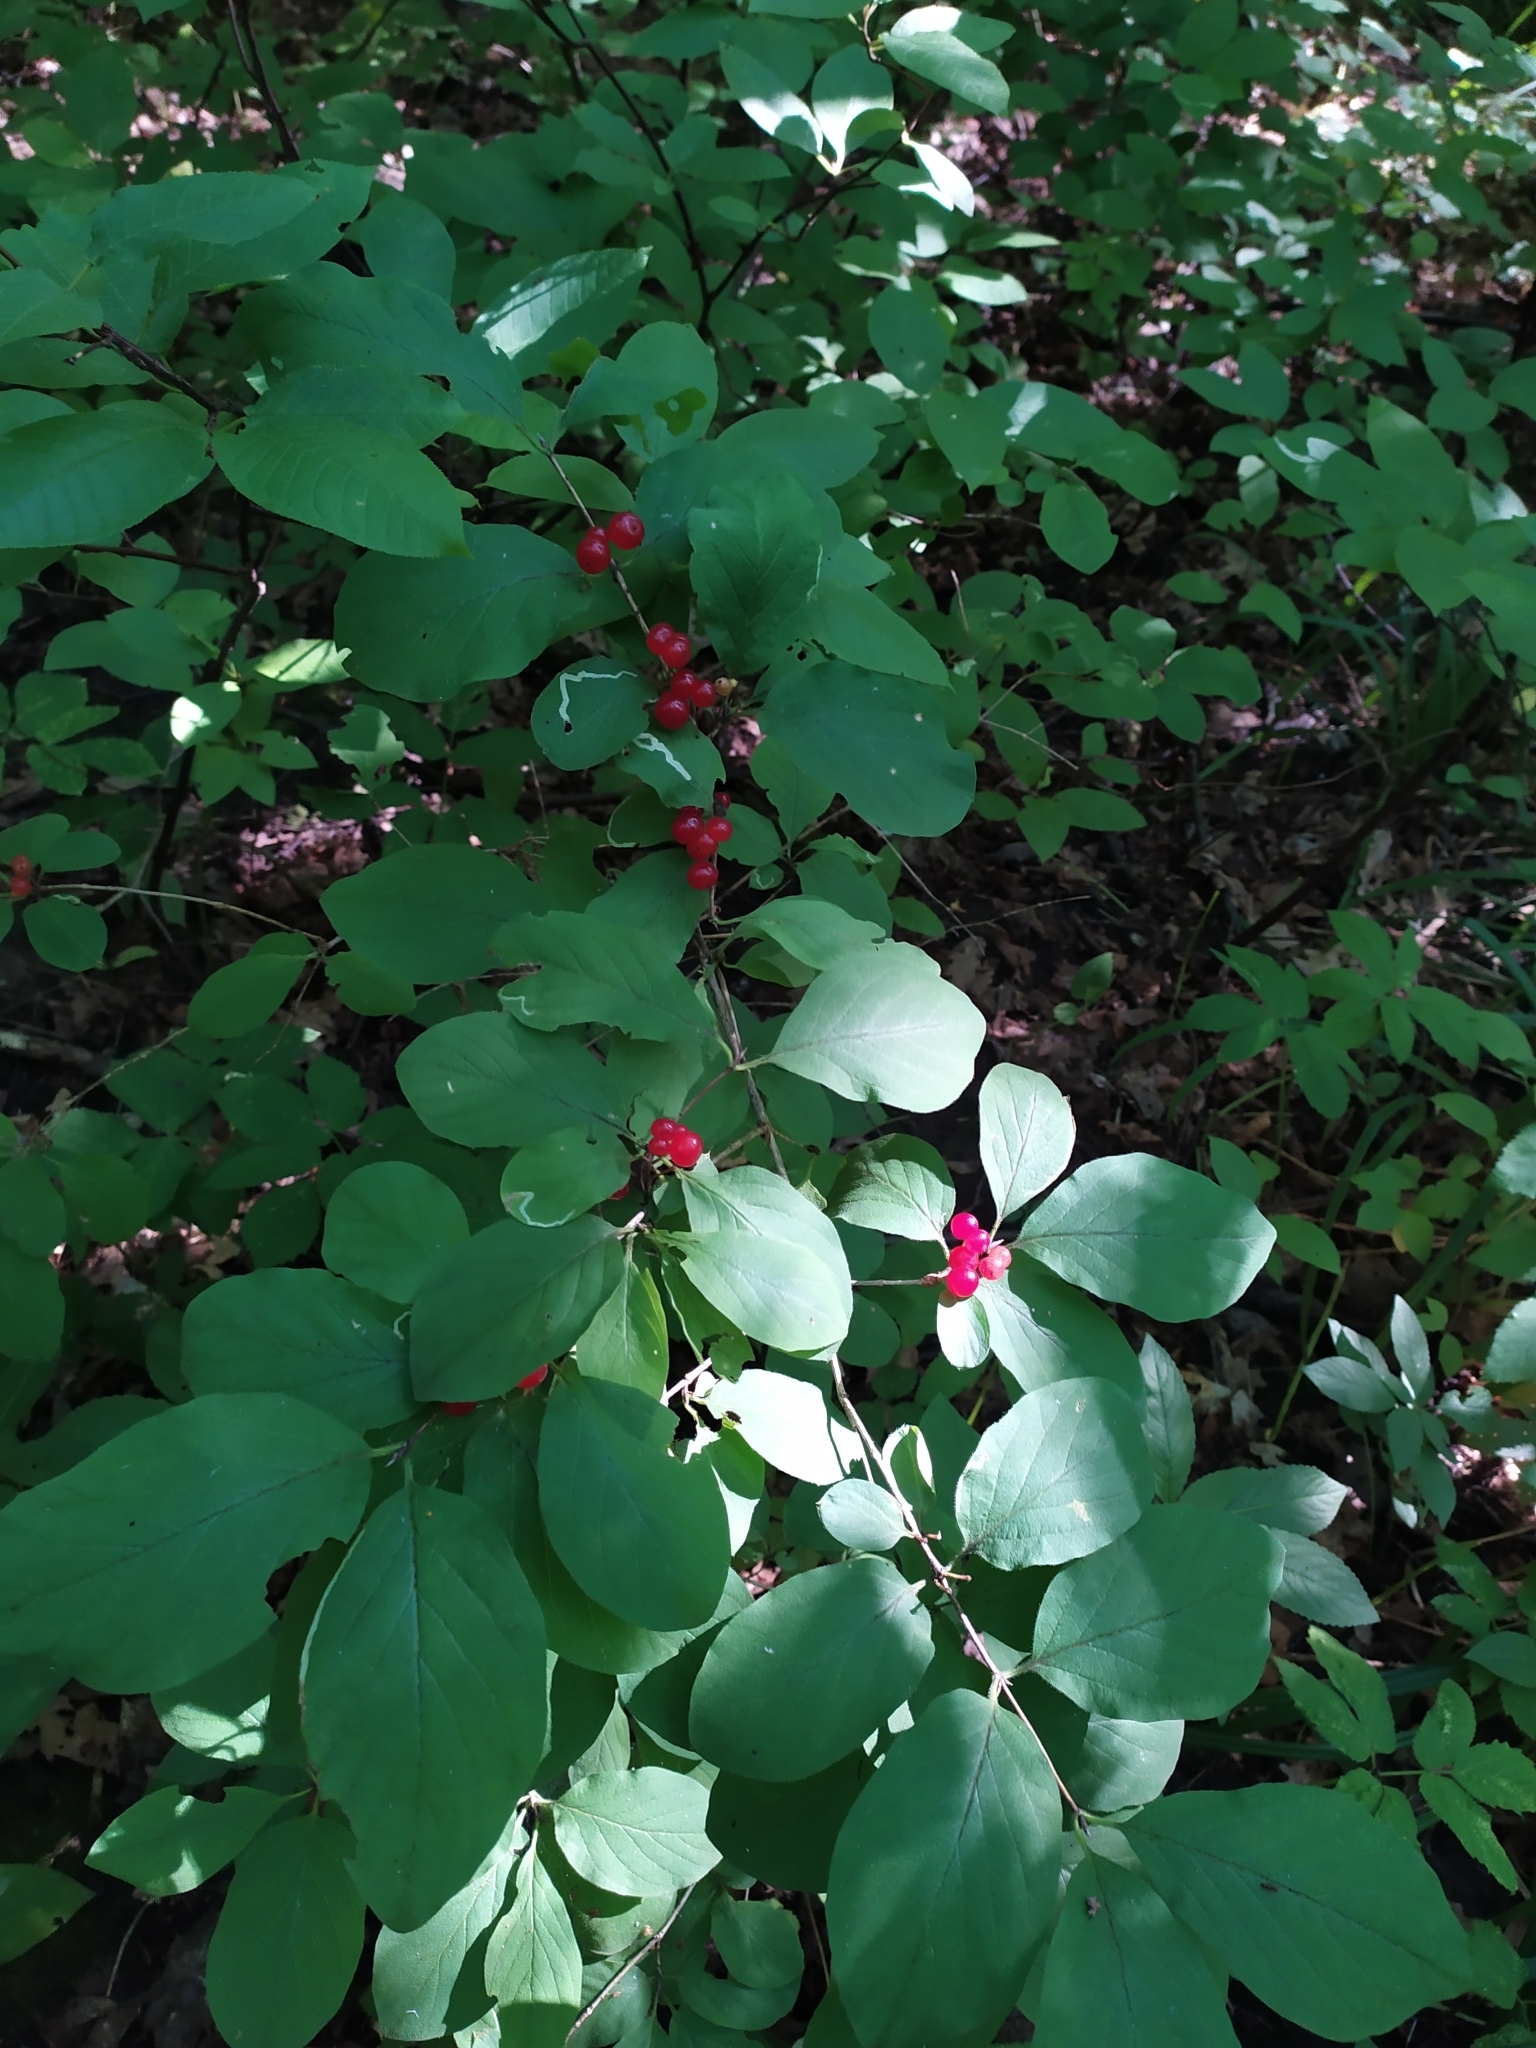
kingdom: Plantae
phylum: Tracheophyta
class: Magnoliopsida
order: Dipsacales
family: Caprifoliaceae
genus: Lonicera
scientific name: Lonicera xylosteum
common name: Fly honeysuckle
